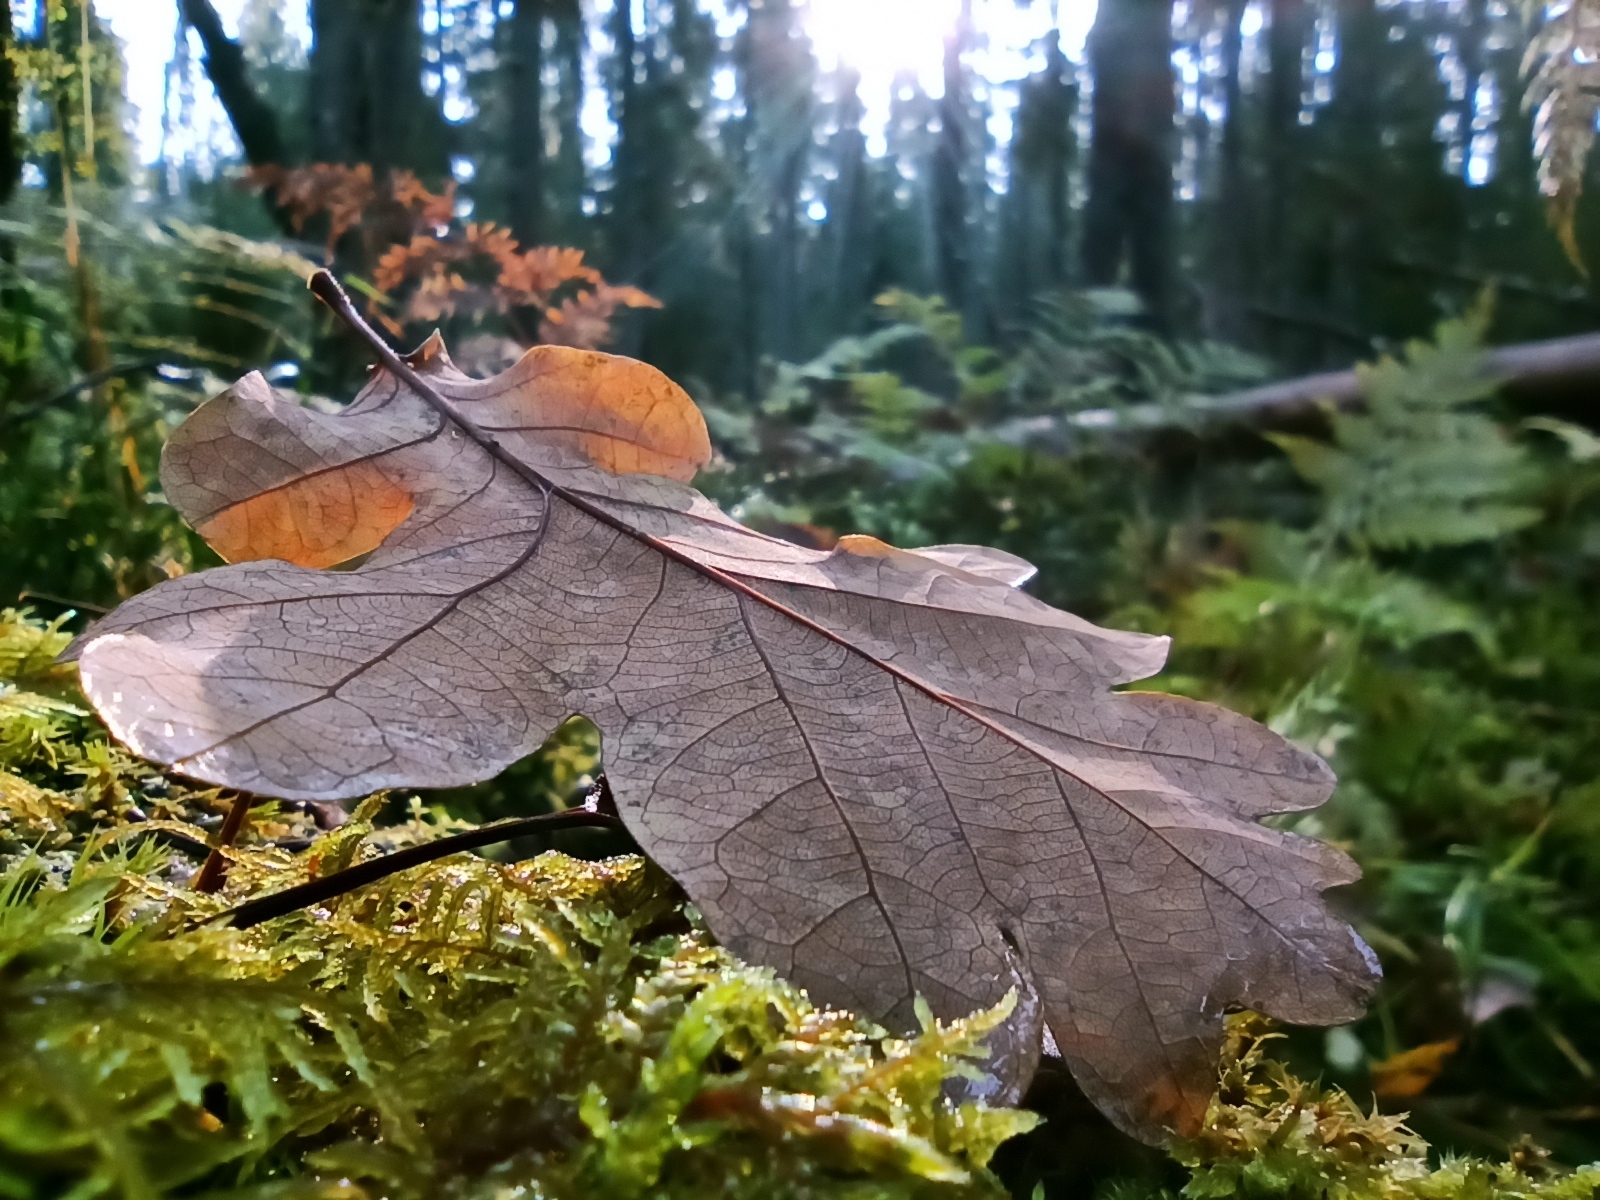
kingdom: Plantae
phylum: Tracheophyta
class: Magnoliopsida
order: Fagales
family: Fagaceae
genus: Quercus
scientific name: Quercus robur
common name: Pedunculate oak
